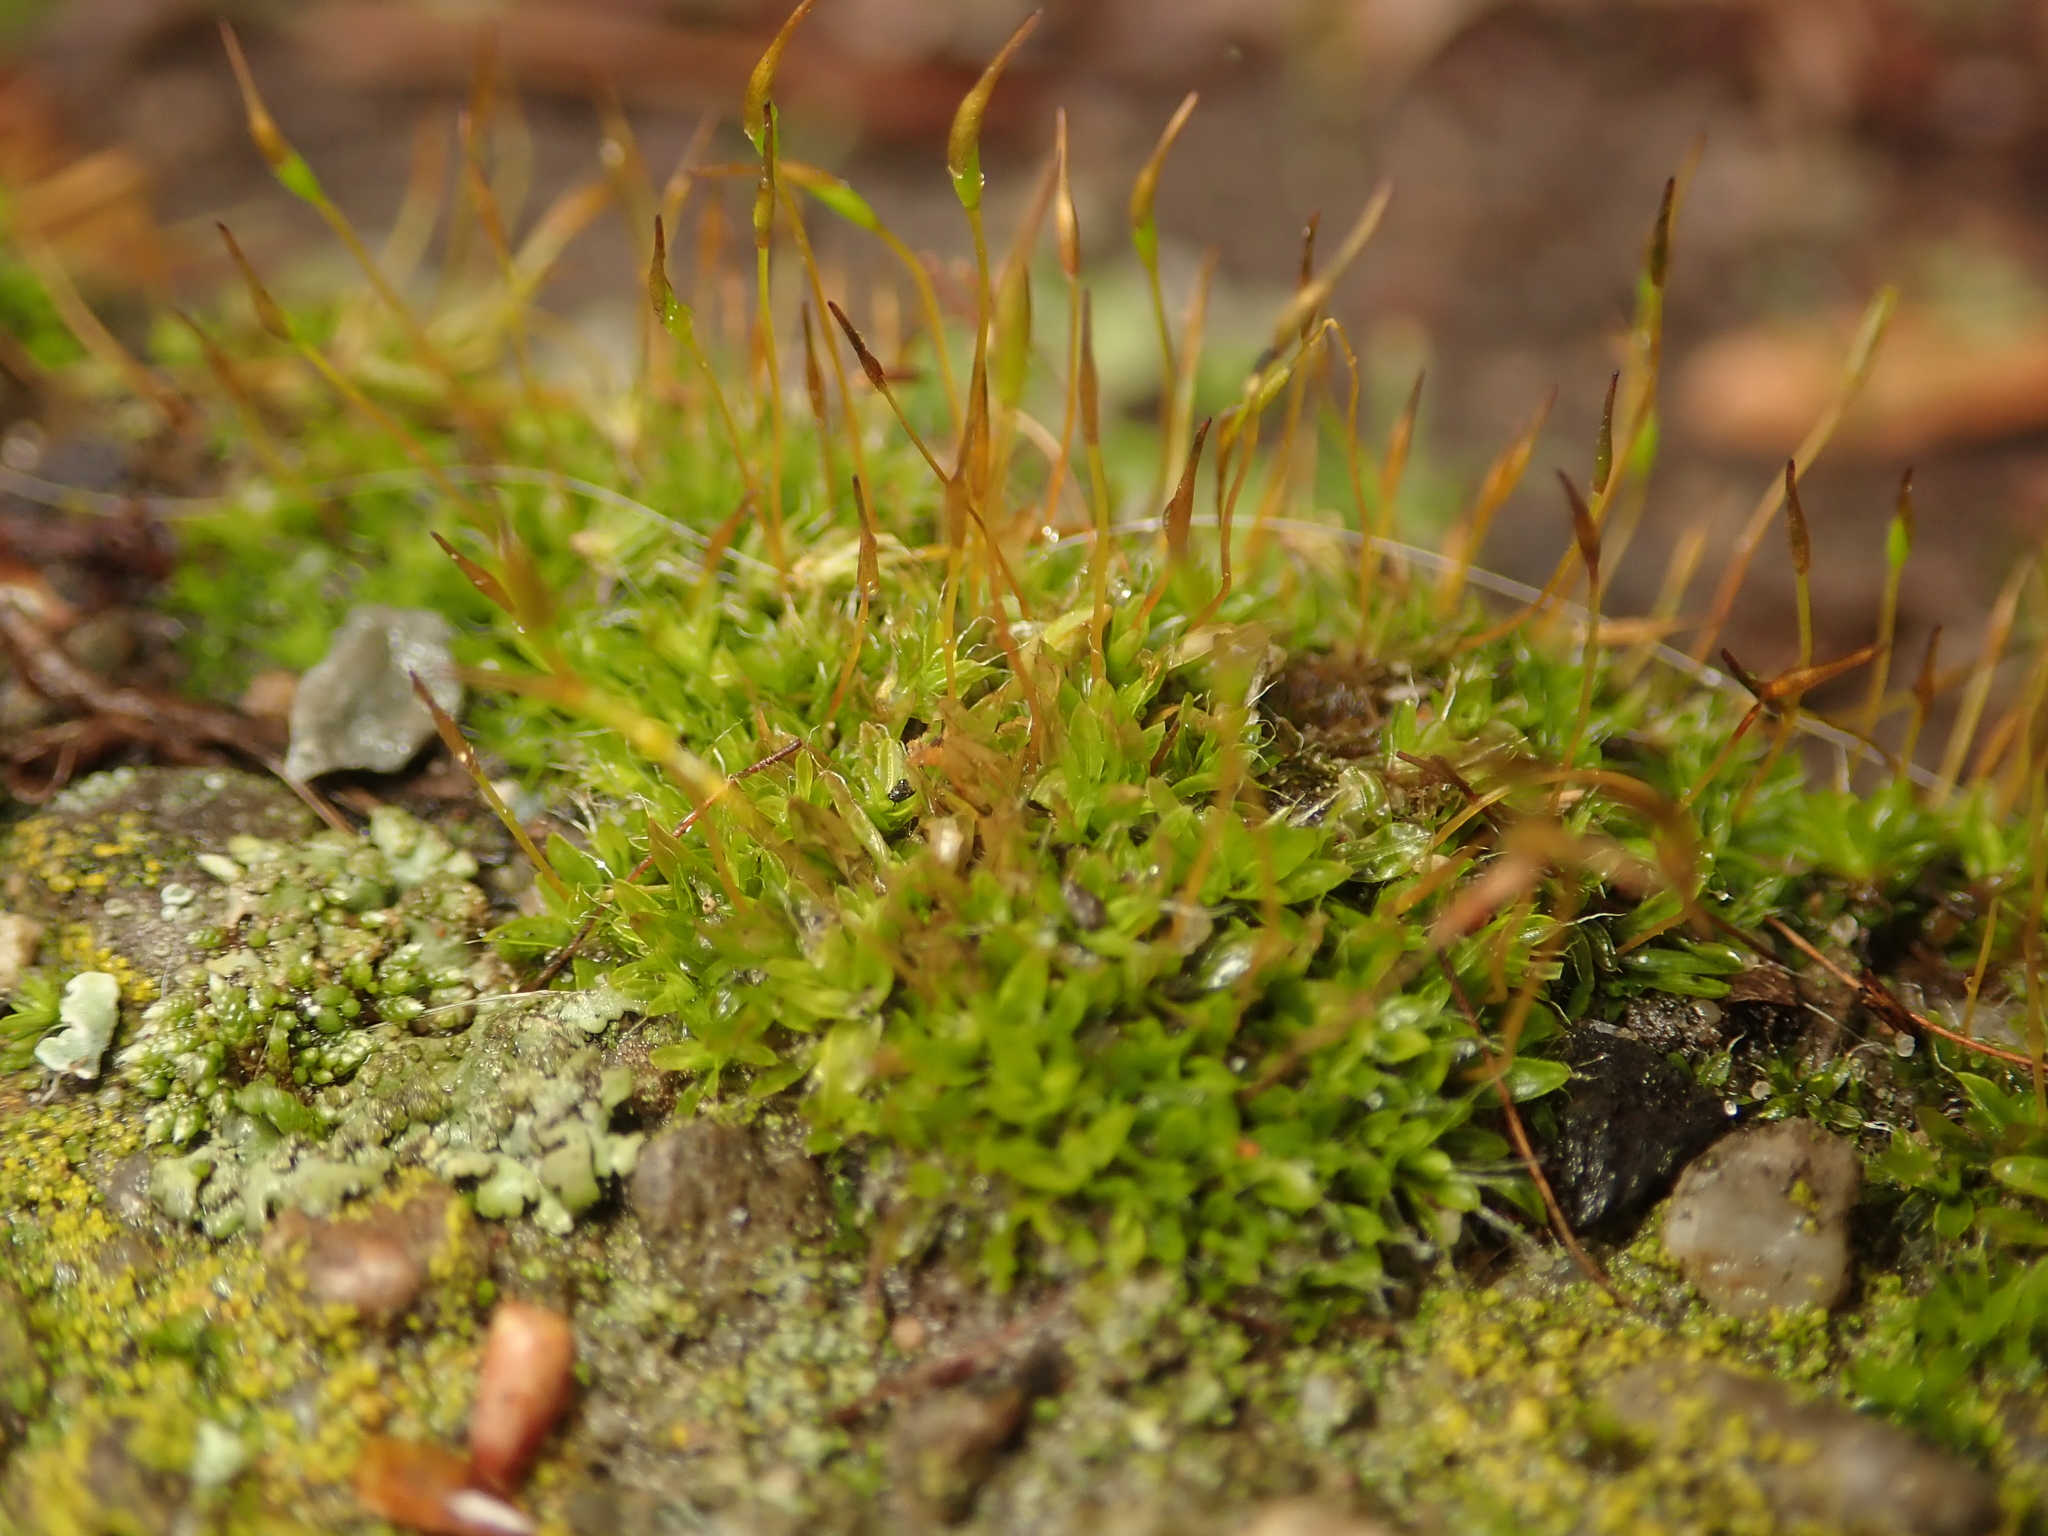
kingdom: Plantae
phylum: Bryophyta
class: Bryopsida
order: Pottiales
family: Pottiaceae
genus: Tortula
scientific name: Tortula muralis
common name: Wall screw-moss
